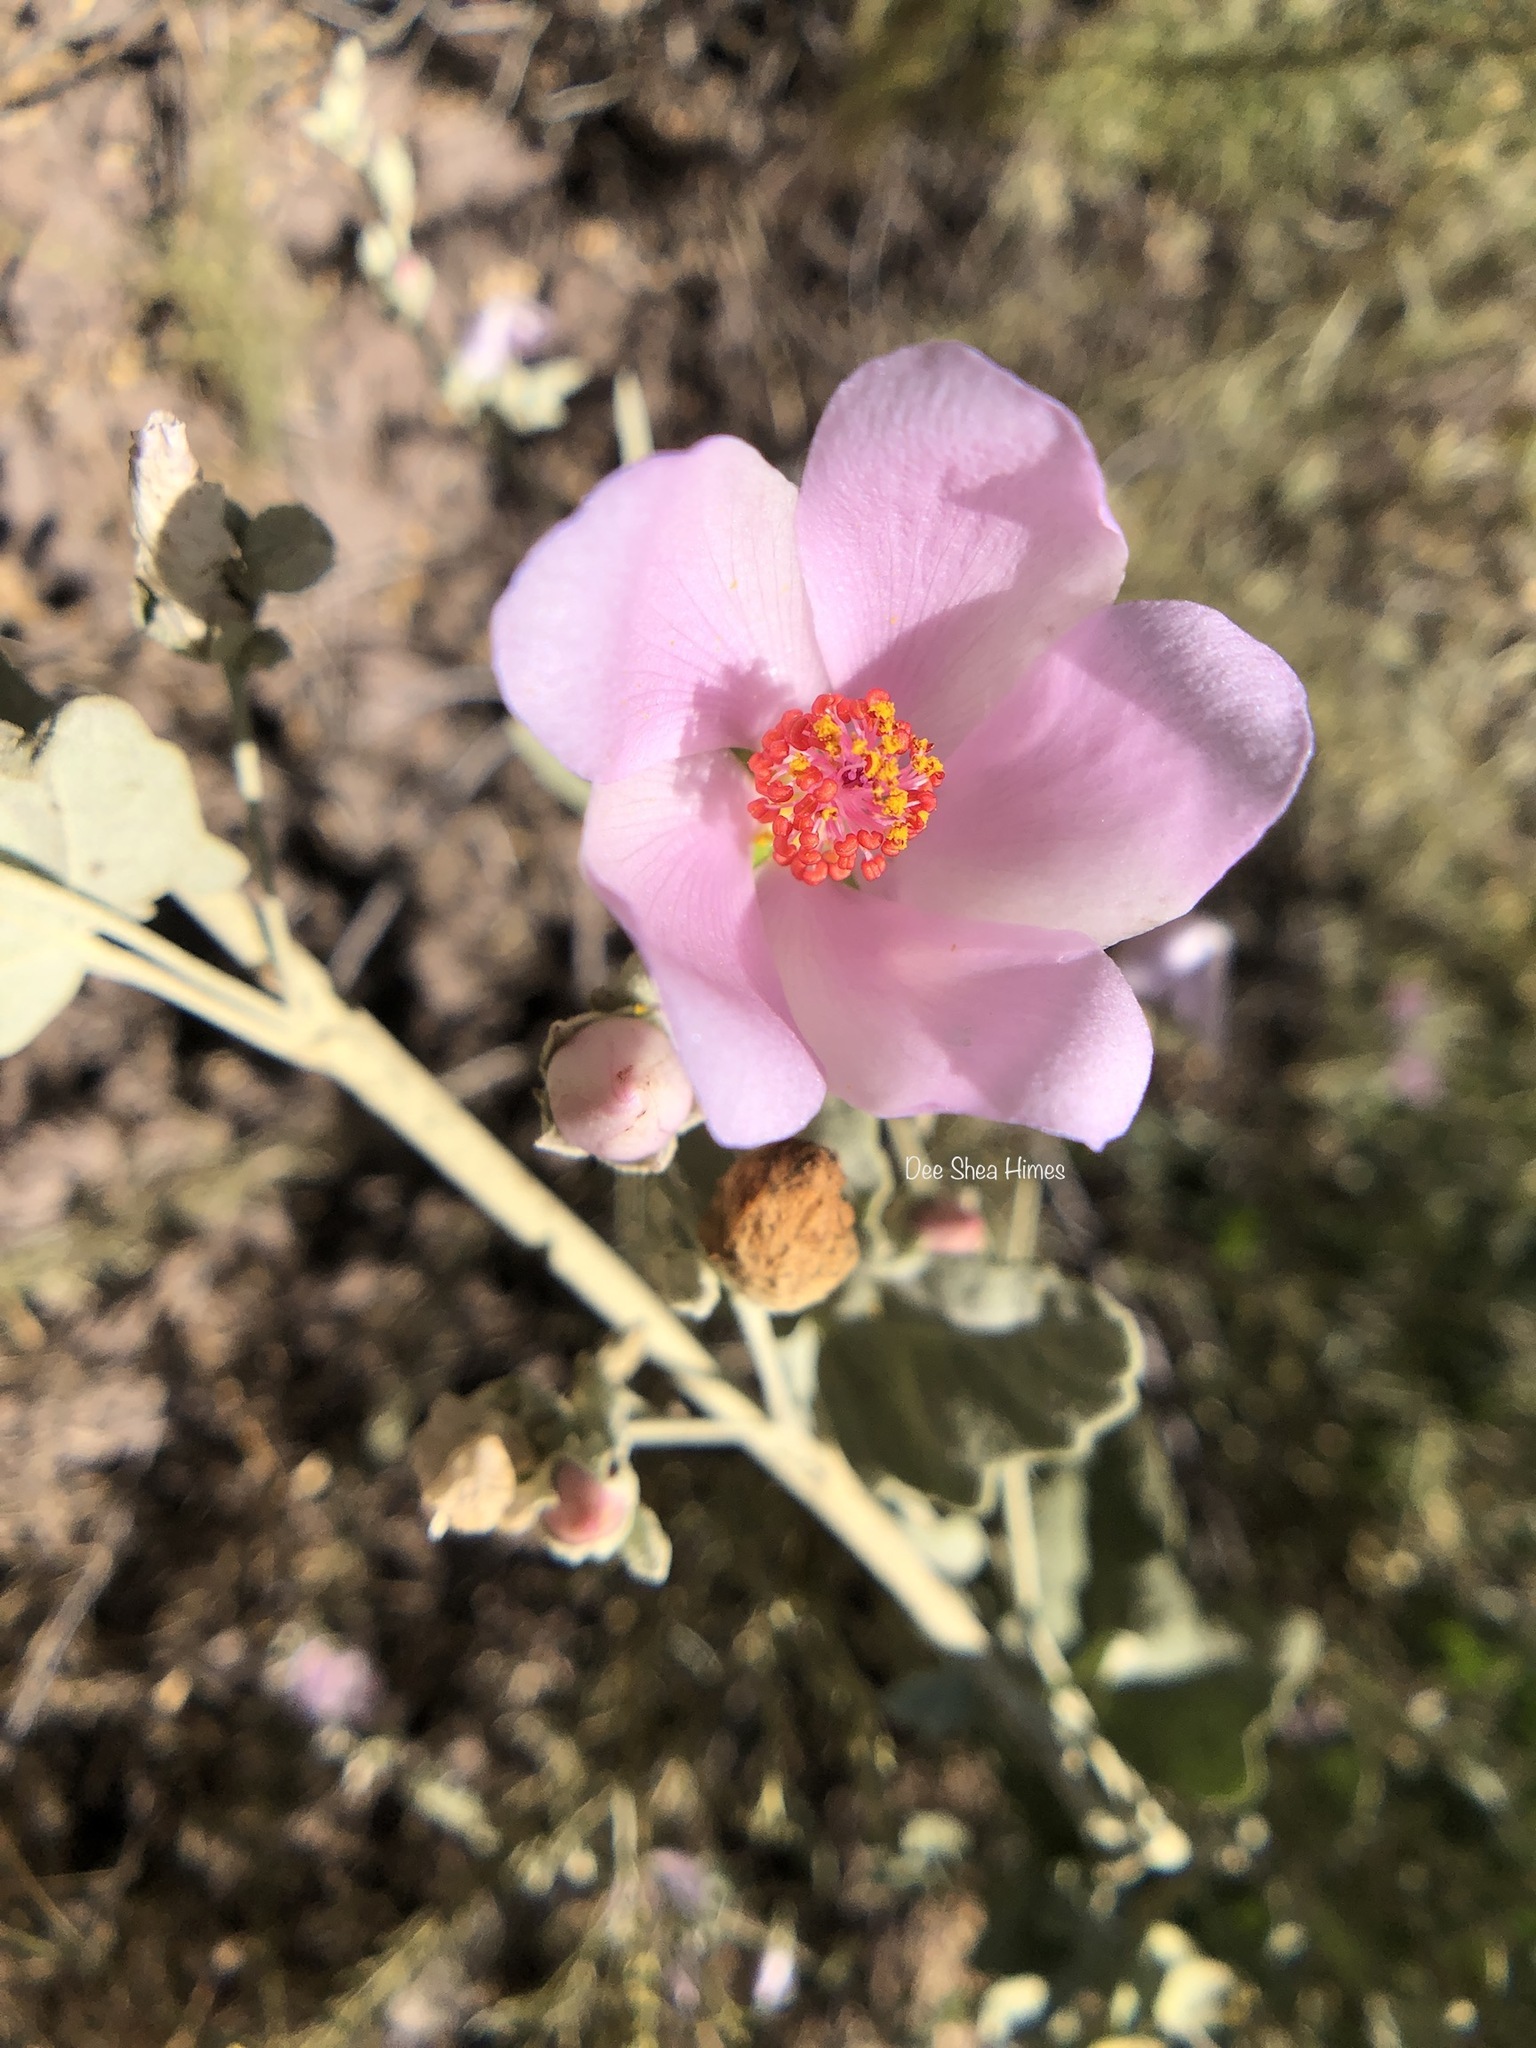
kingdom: Plantae
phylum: Tracheophyta
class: Magnoliopsida
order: Malvales
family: Malvaceae
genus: Malacothamnus
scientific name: Malacothamnus fasciculatus
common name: Sant cruz island bush-mallow
